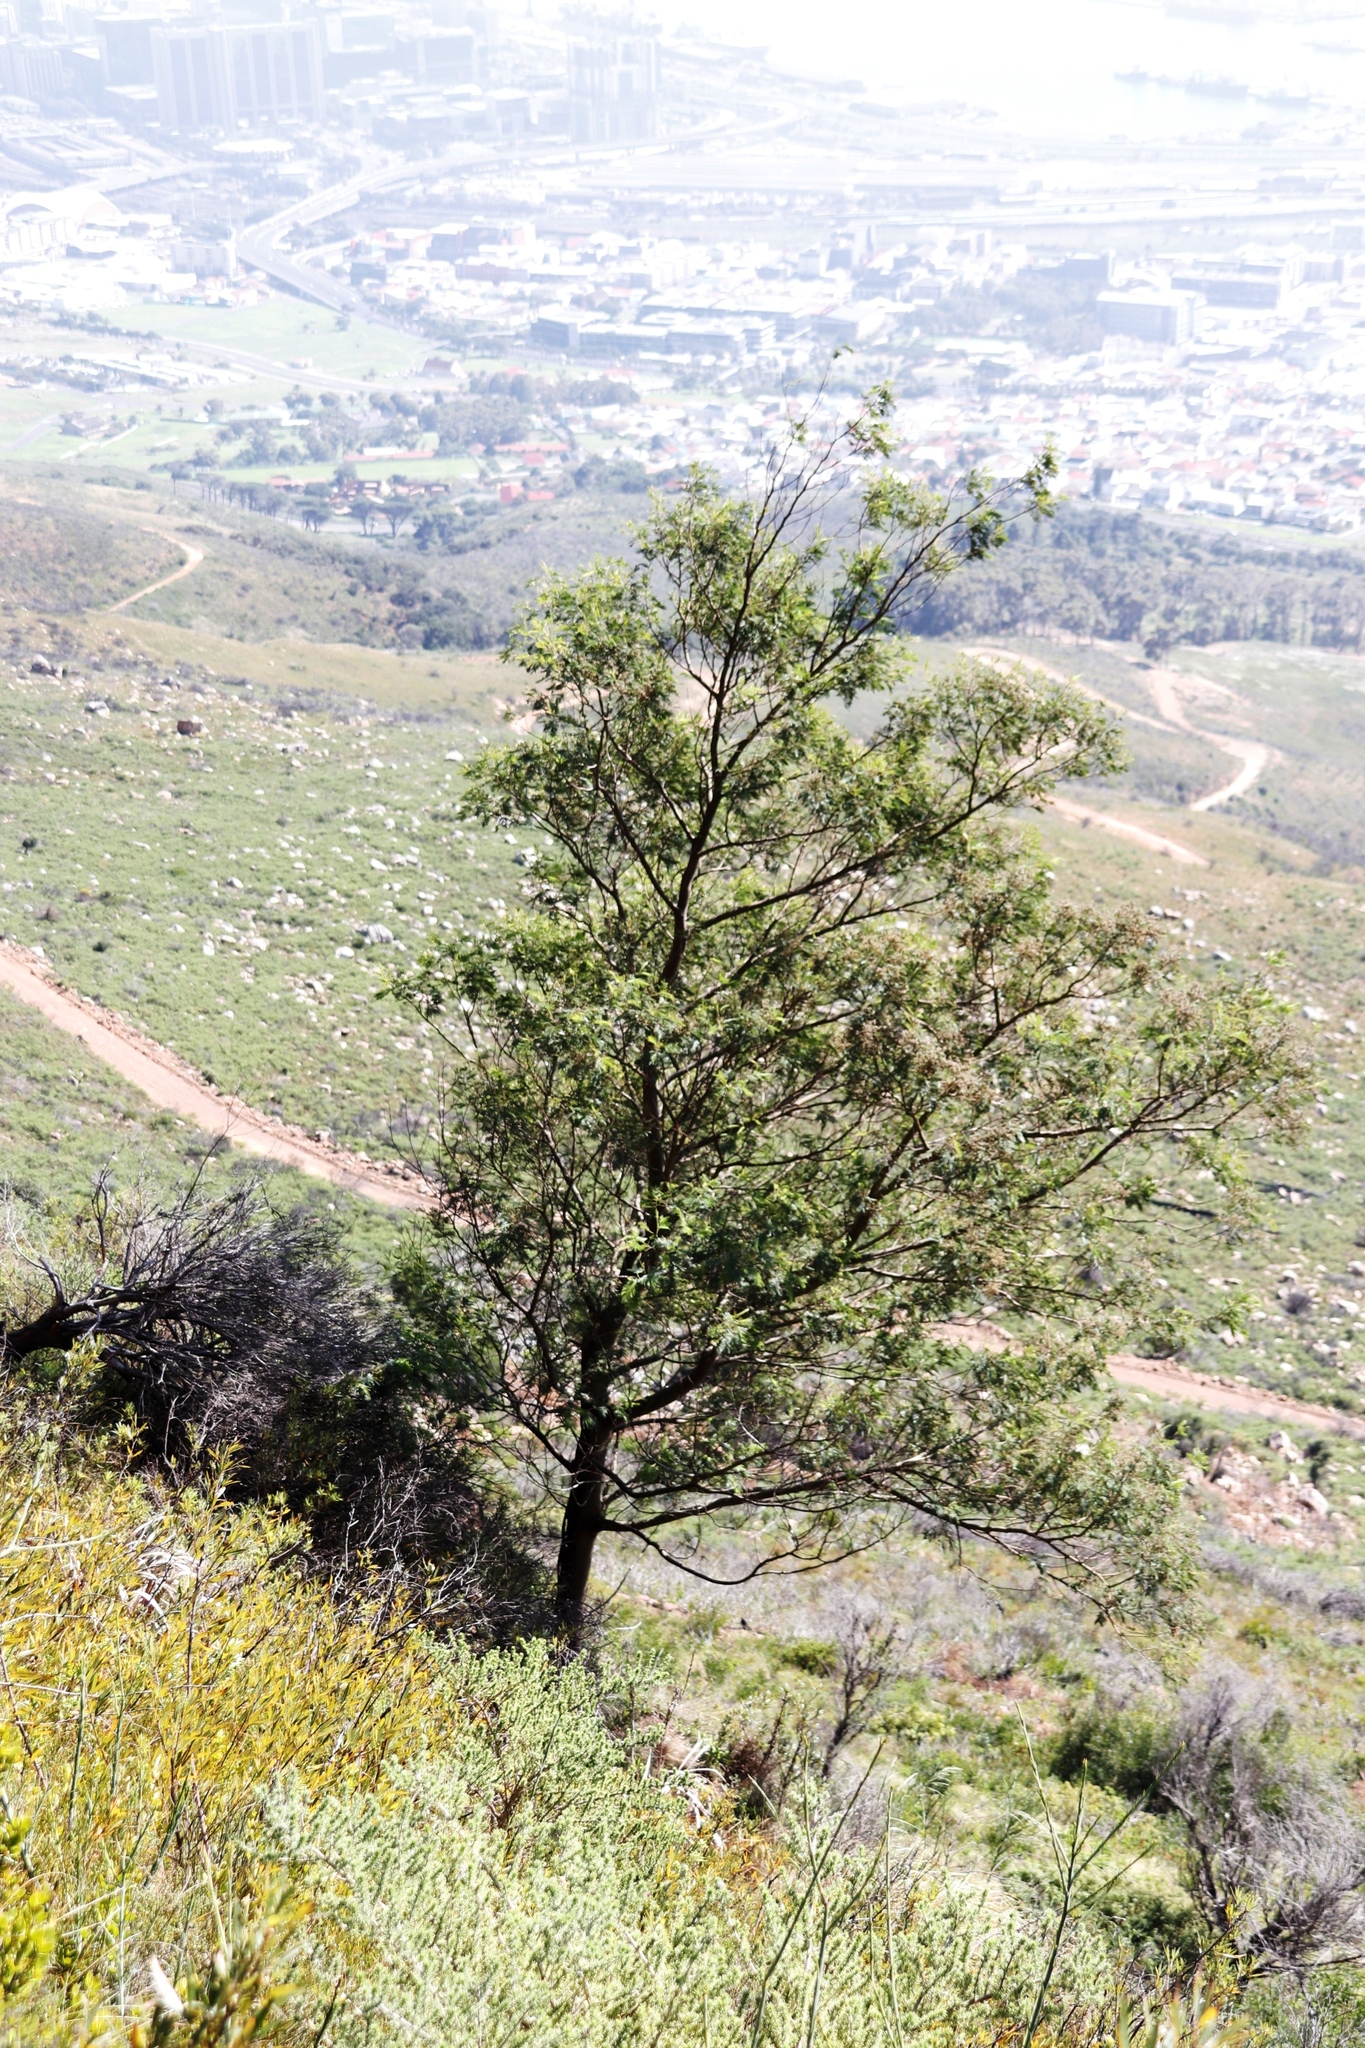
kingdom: Plantae
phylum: Tracheophyta
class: Magnoliopsida
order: Fabales
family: Fabaceae
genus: Acacia
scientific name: Acacia mearnsii
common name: Black wattle
